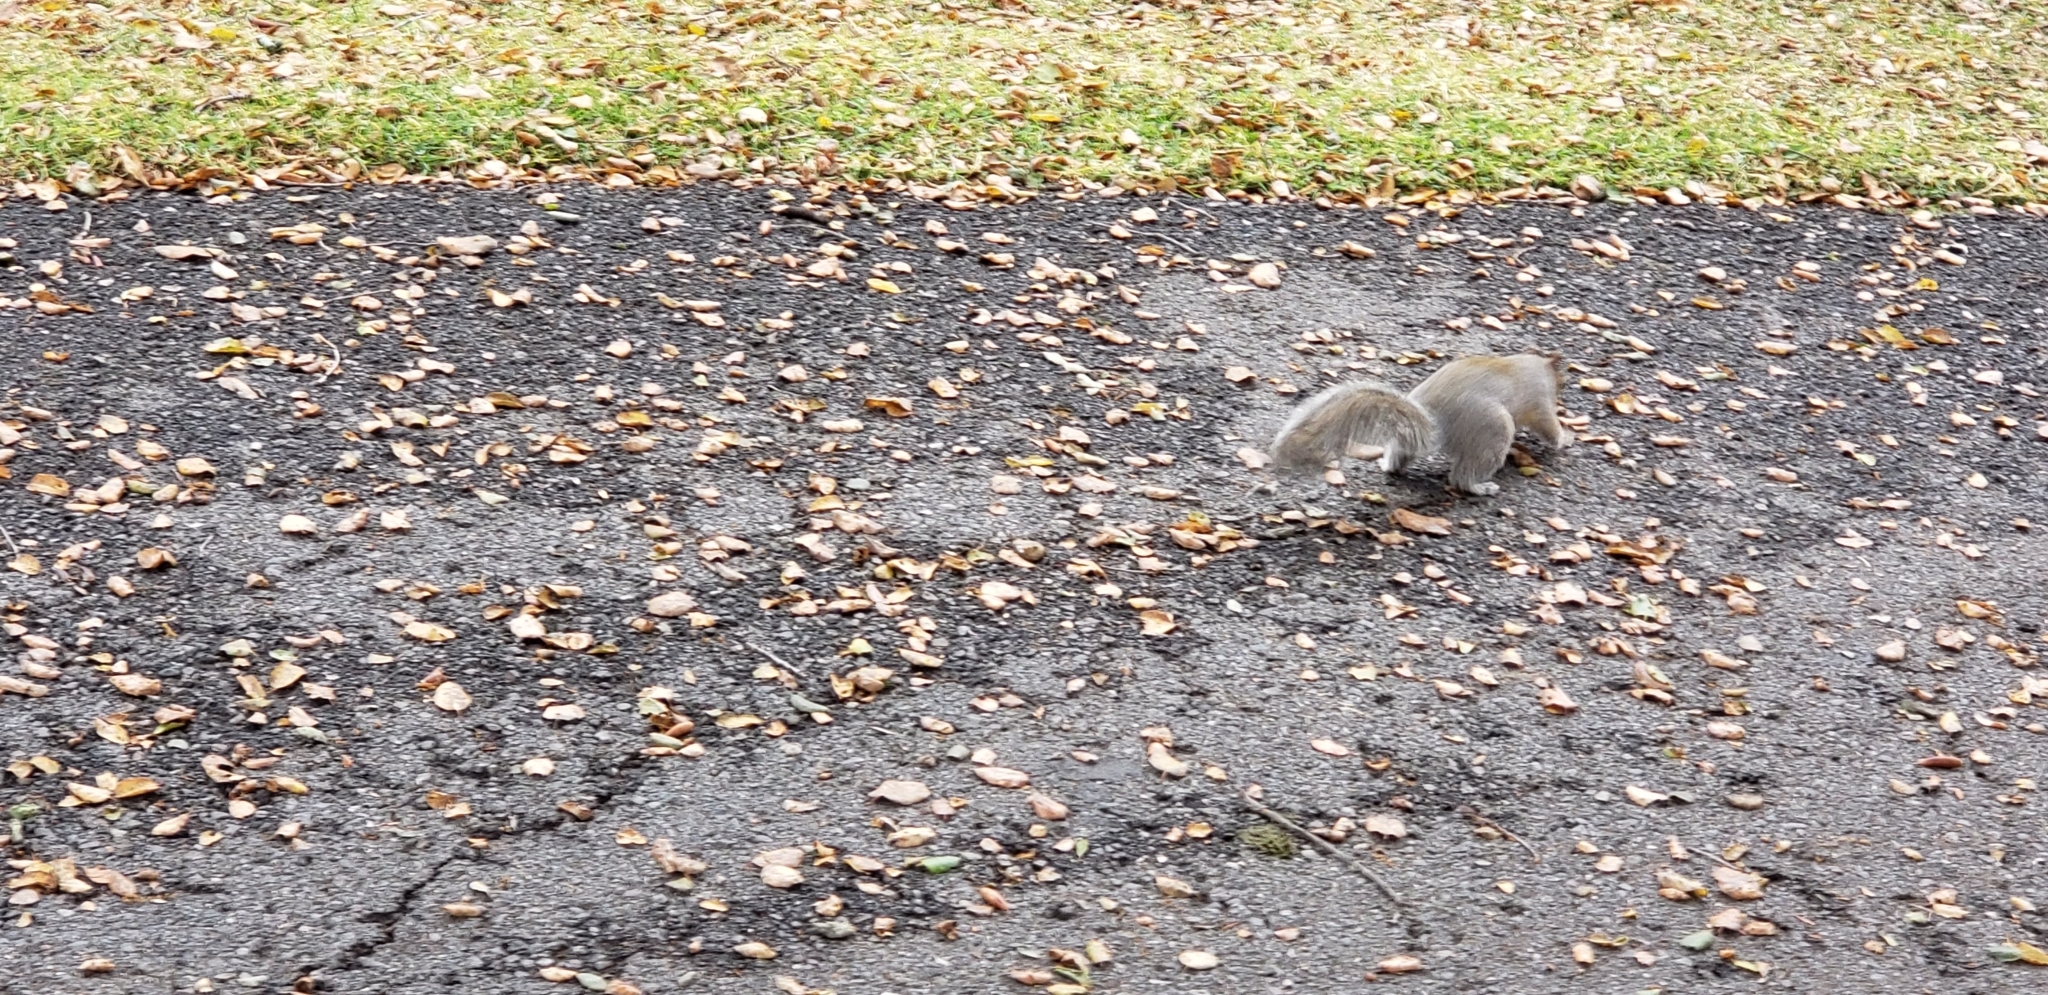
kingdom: Animalia
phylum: Chordata
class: Mammalia
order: Rodentia
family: Sciuridae
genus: Sciurus
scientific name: Sciurus carolinensis
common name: Eastern gray squirrel
